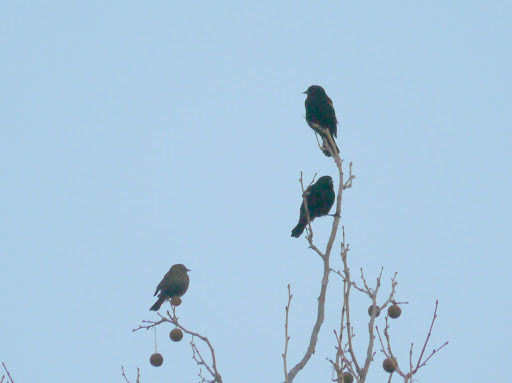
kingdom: Animalia
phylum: Chordata
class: Aves
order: Passeriformes
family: Icteridae
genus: Agelaius
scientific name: Agelaius phoeniceus
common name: Red-winged blackbird
